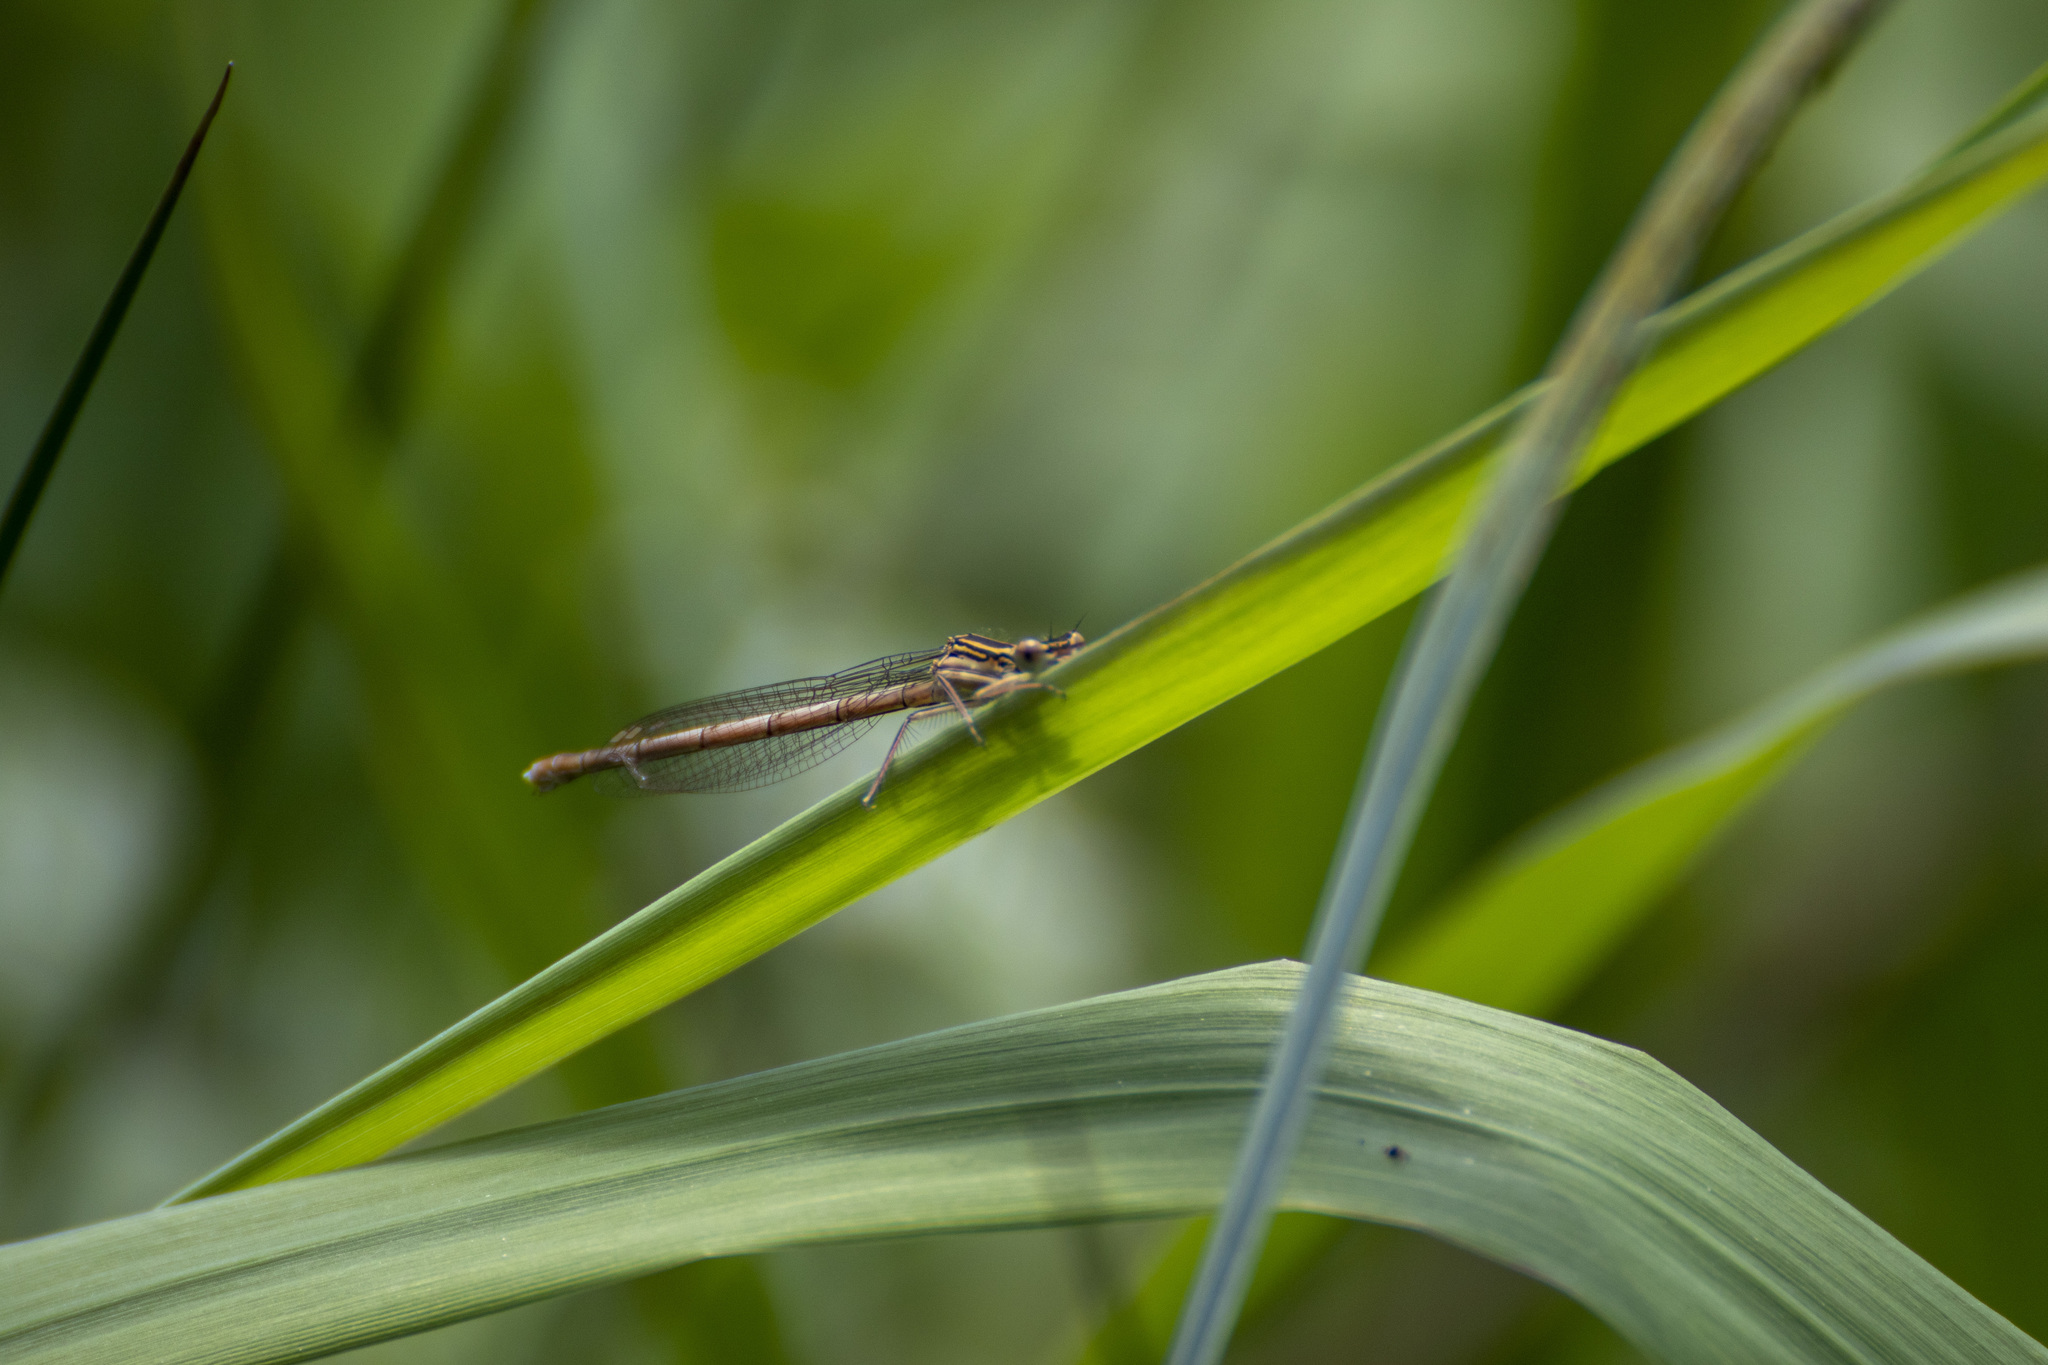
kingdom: Animalia
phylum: Arthropoda
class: Insecta
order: Odonata
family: Platycnemididae
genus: Platycnemis
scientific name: Platycnemis pennipes
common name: White-legged damselfly
